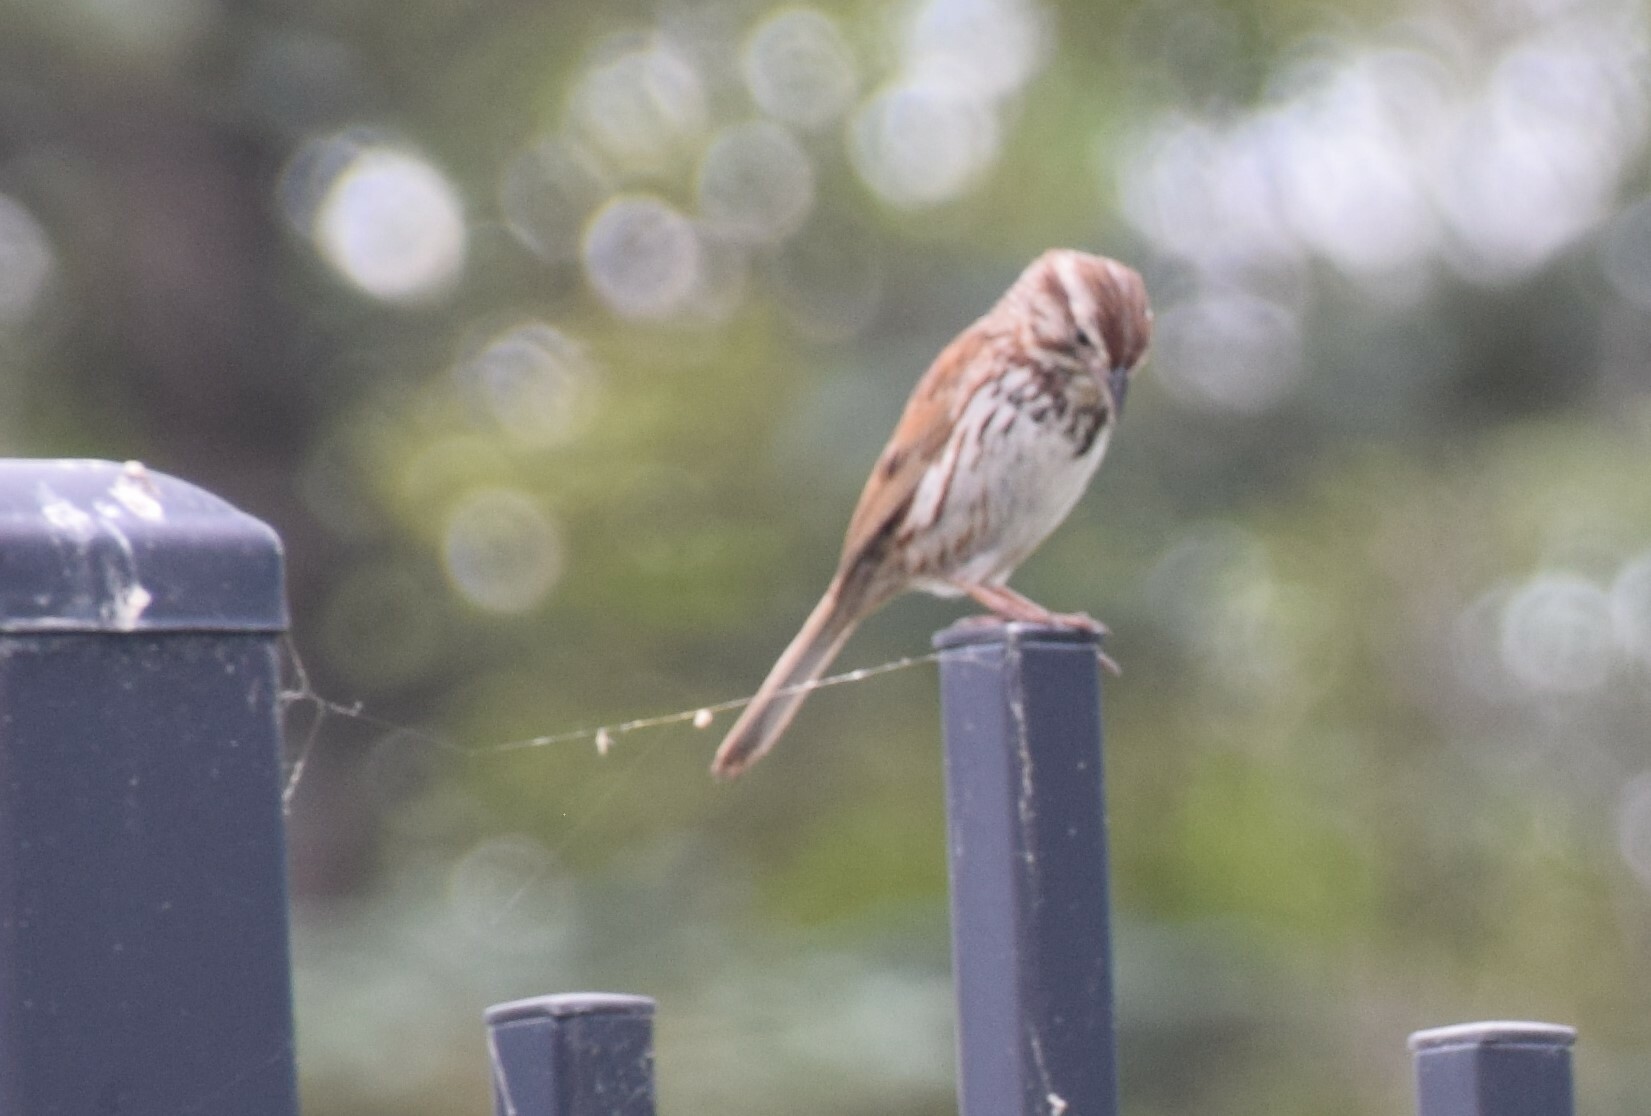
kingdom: Animalia
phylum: Chordata
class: Aves
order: Passeriformes
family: Passerellidae
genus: Melospiza
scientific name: Melospiza melodia
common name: Song sparrow
